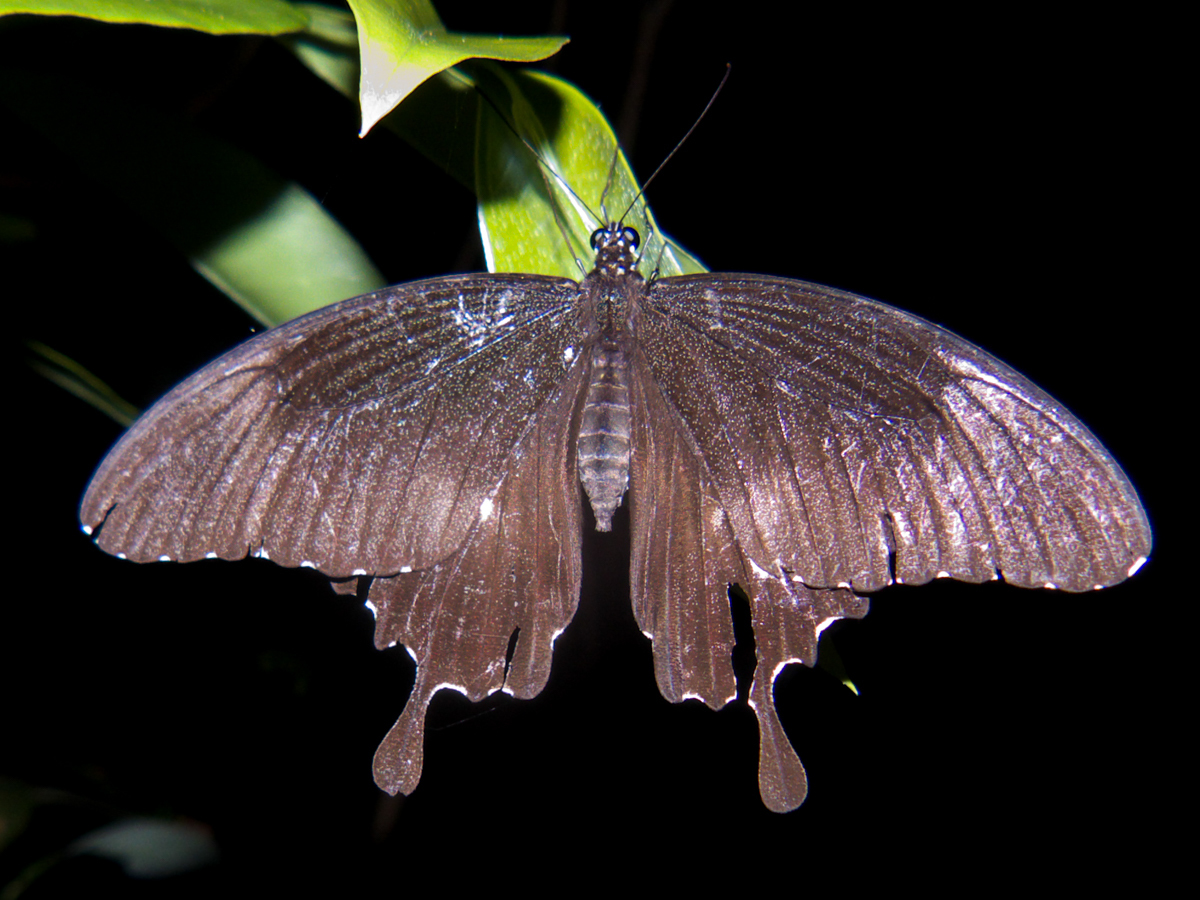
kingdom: Animalia
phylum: Arthropoda
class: Insecta
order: Lepidoptera
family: Papilionidae
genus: Atrophaneura
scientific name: Atrophaneura varuna
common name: Common batwing
